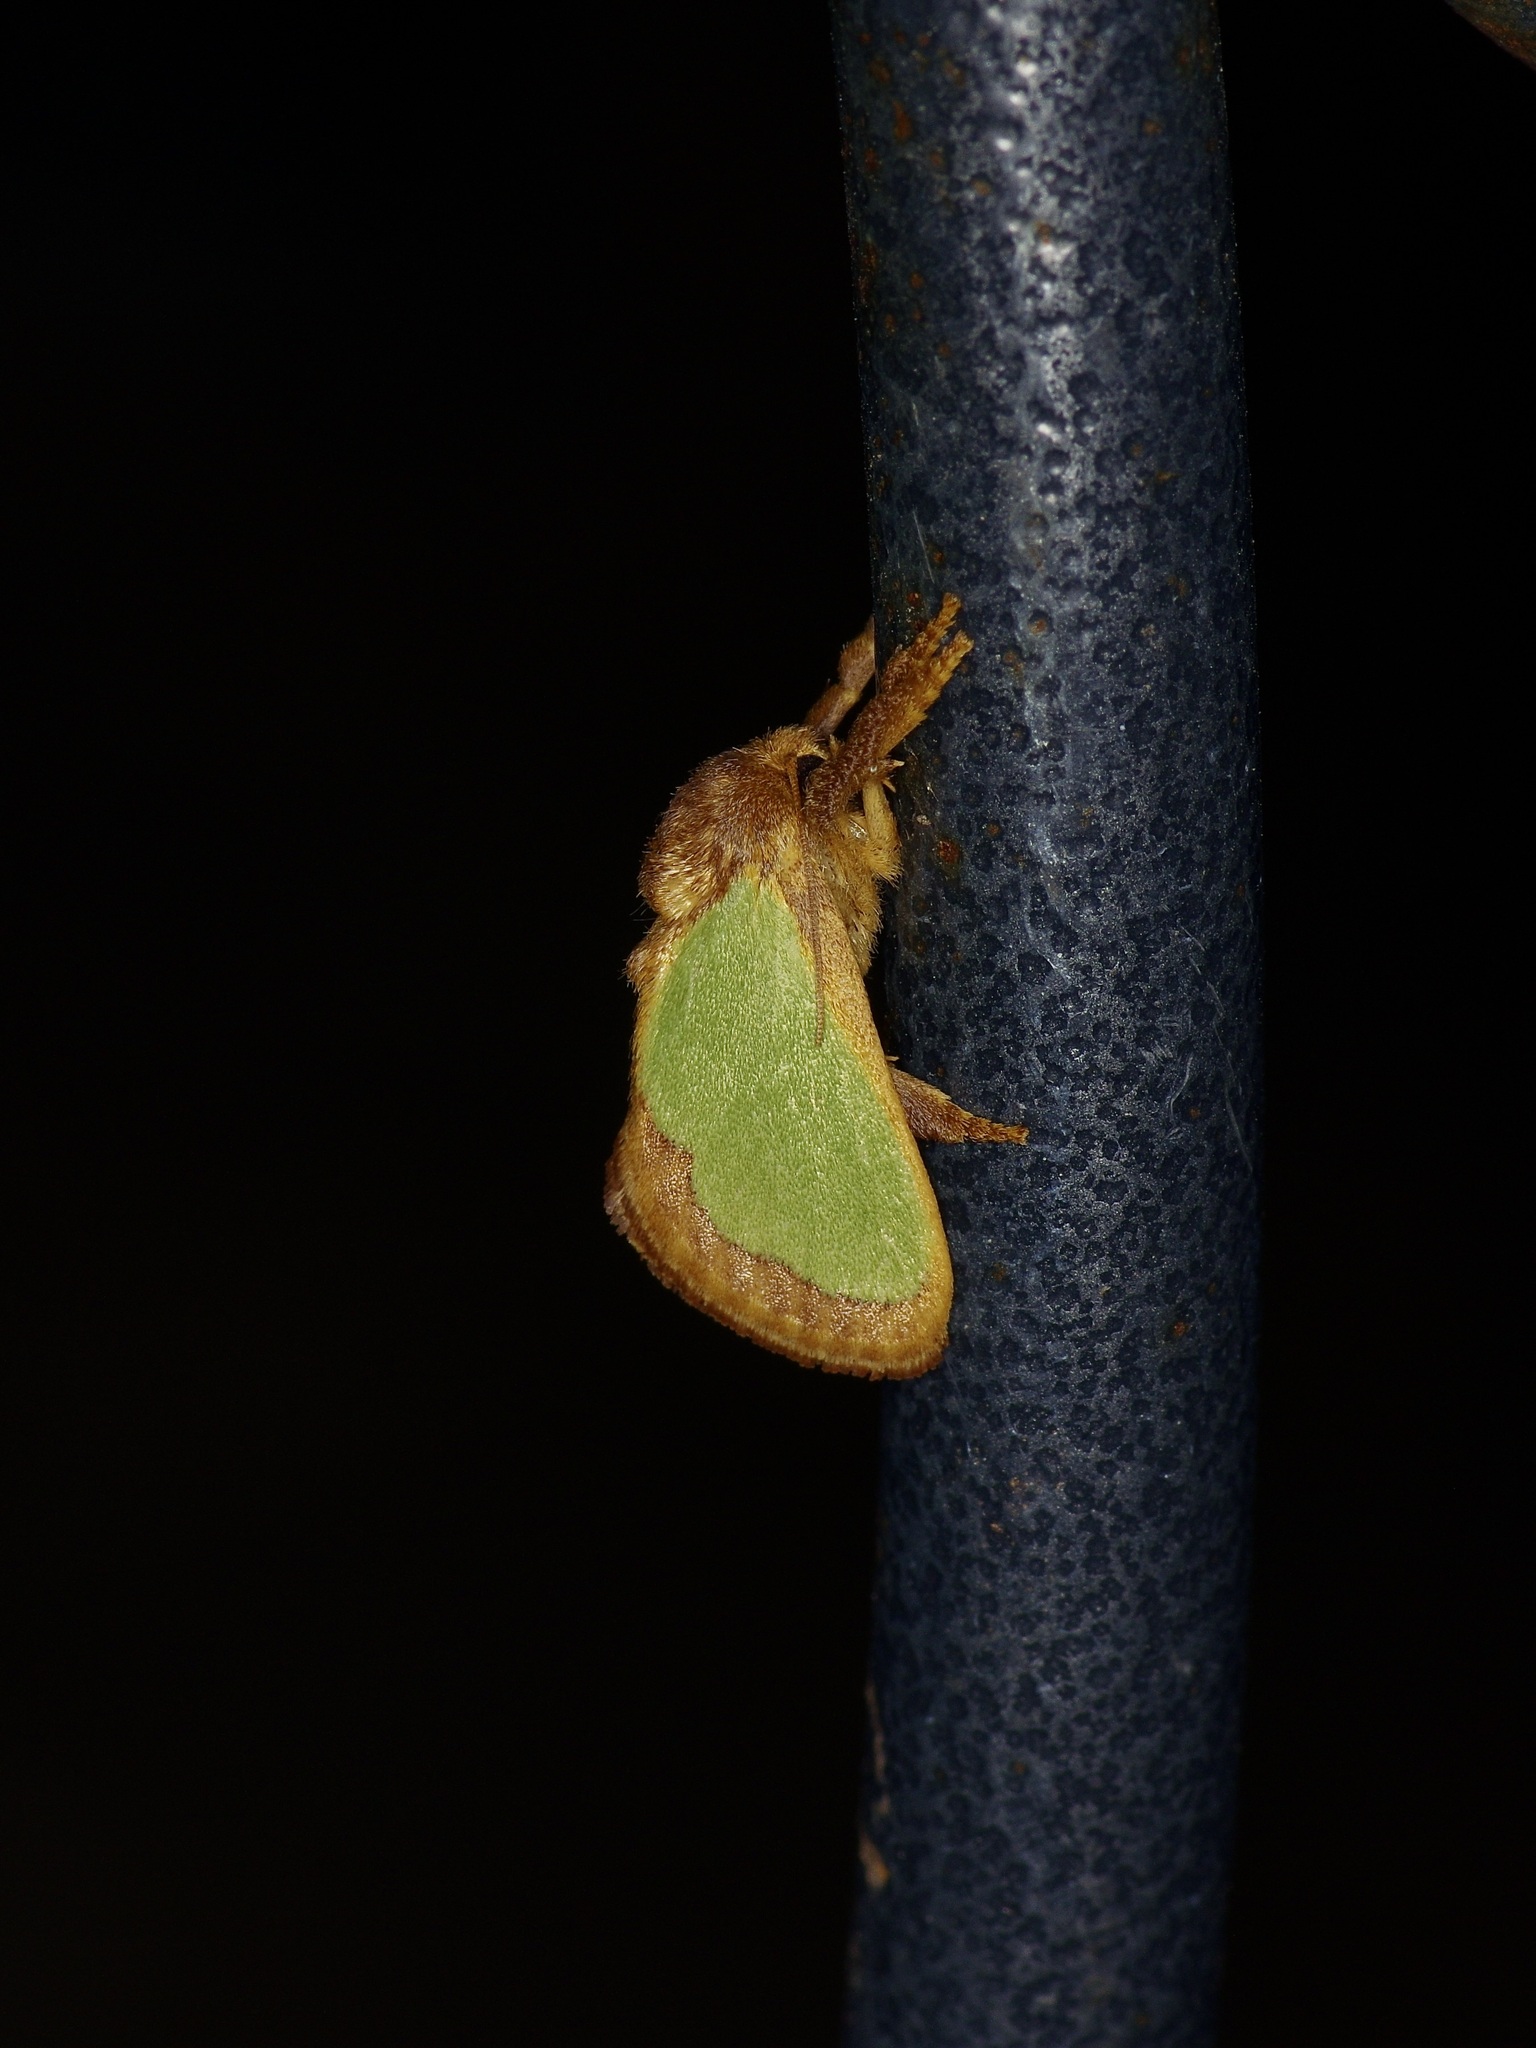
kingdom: Animalia
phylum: Arthropoda
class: Insecta
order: Lepidoptera
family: Limacodidae
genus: Euclea
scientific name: Euclea incisa
